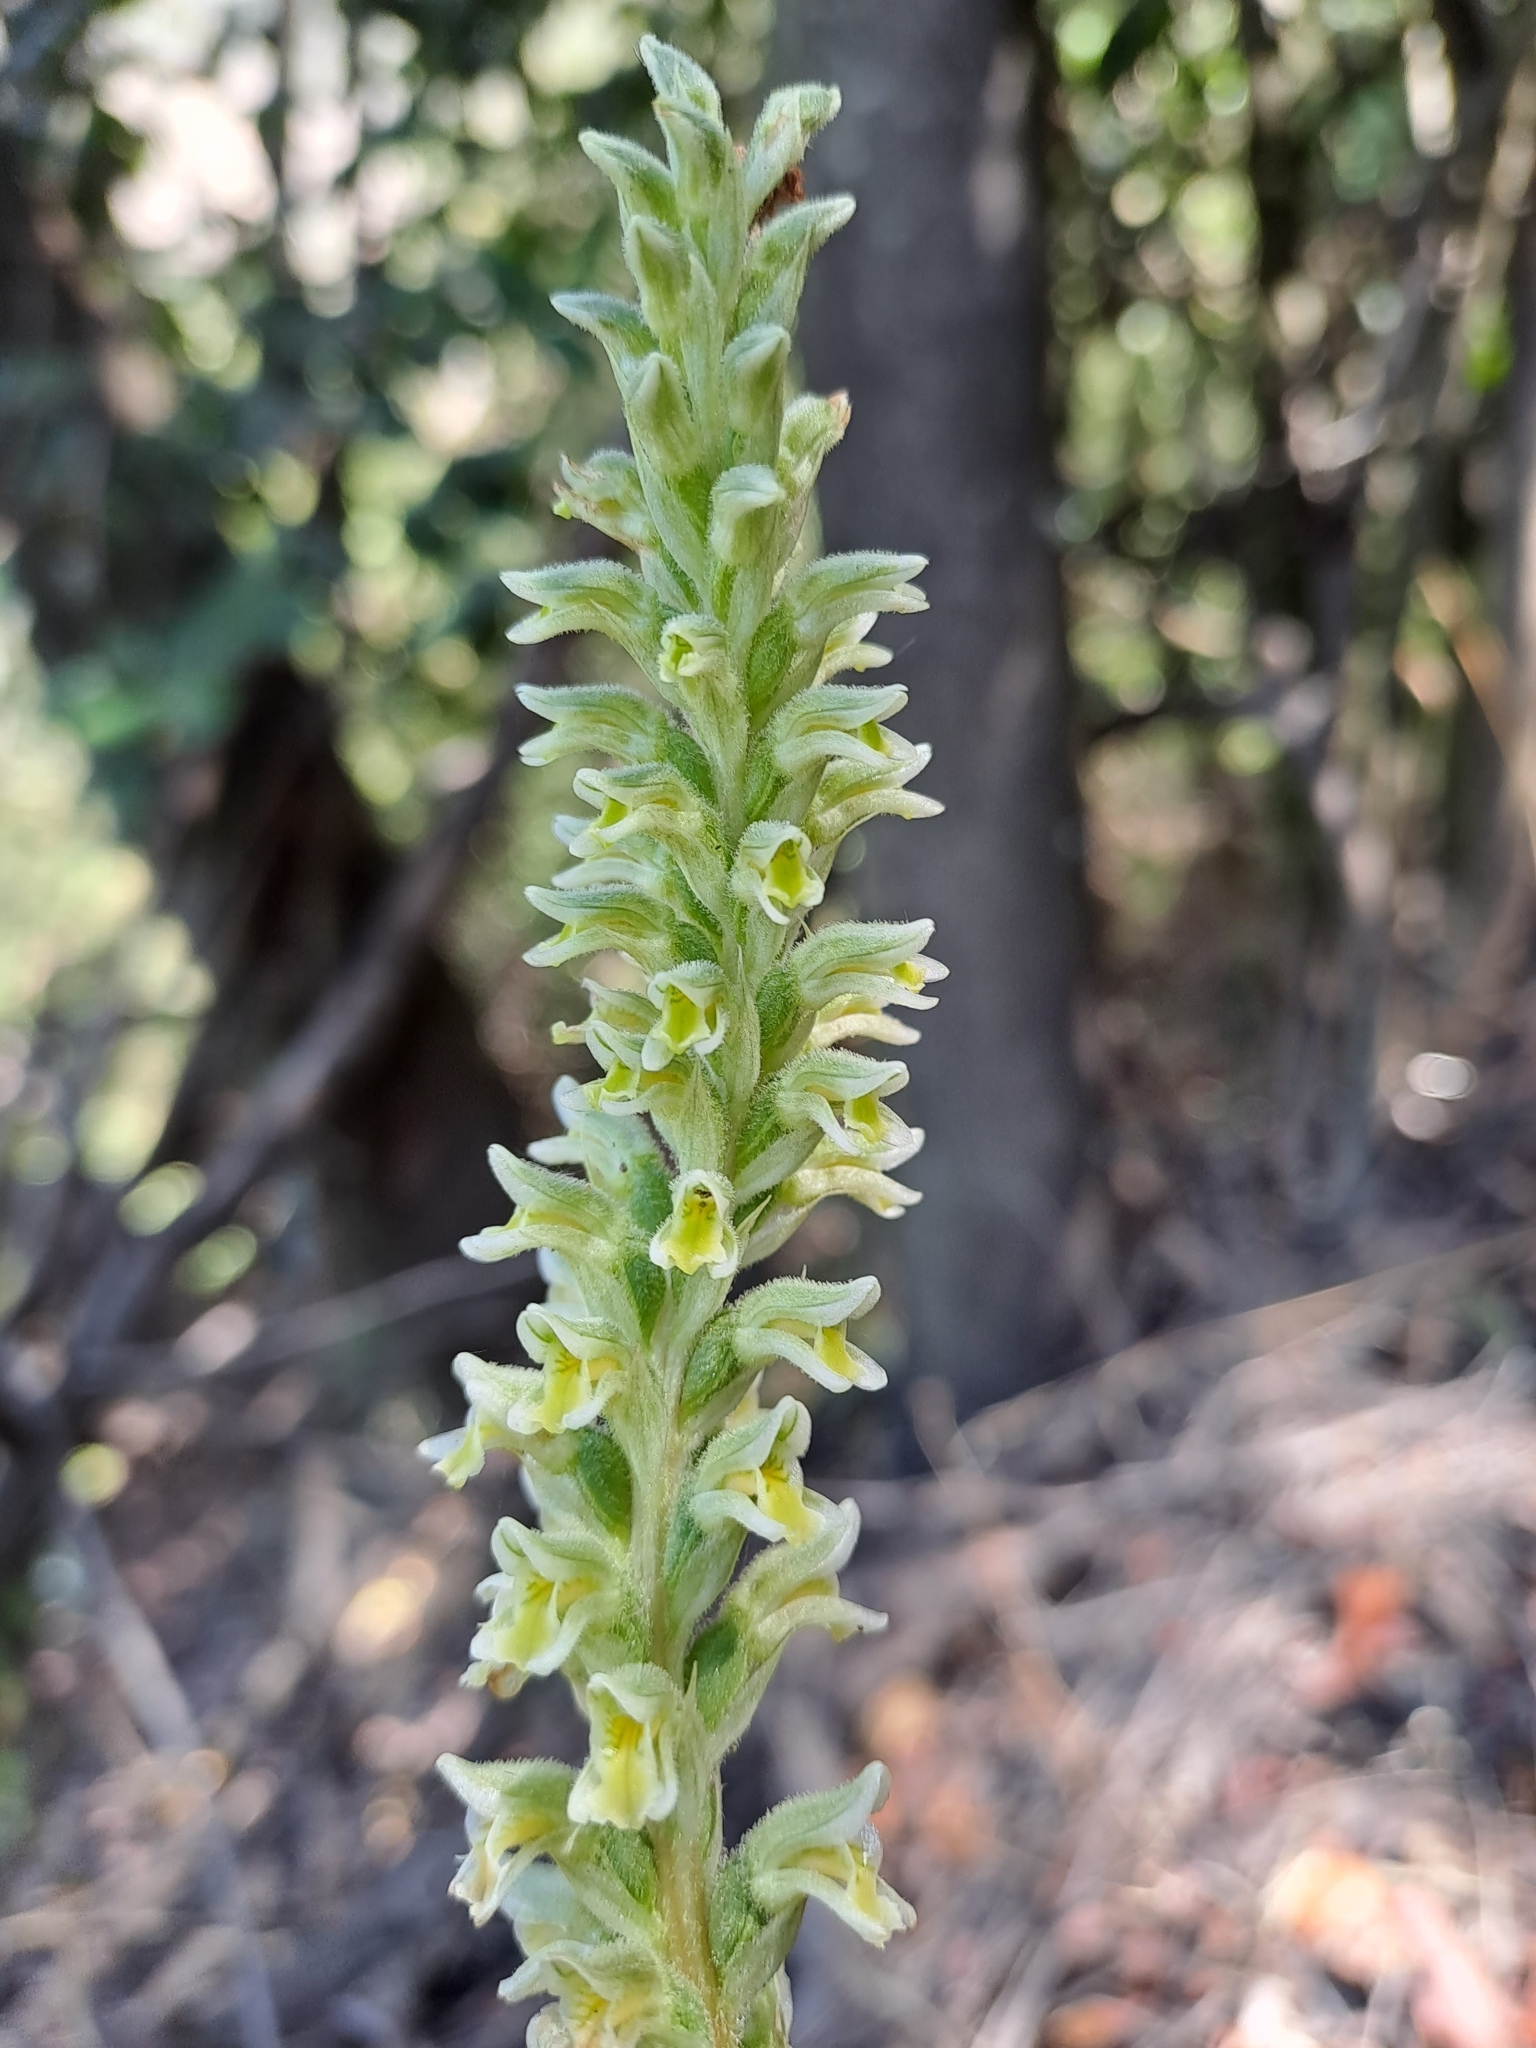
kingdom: Plantae
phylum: Tracheophyta
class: Liliopsida
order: Asparagales
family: Orchidaceae
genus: Brachystele
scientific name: Brachystele unilateralis
